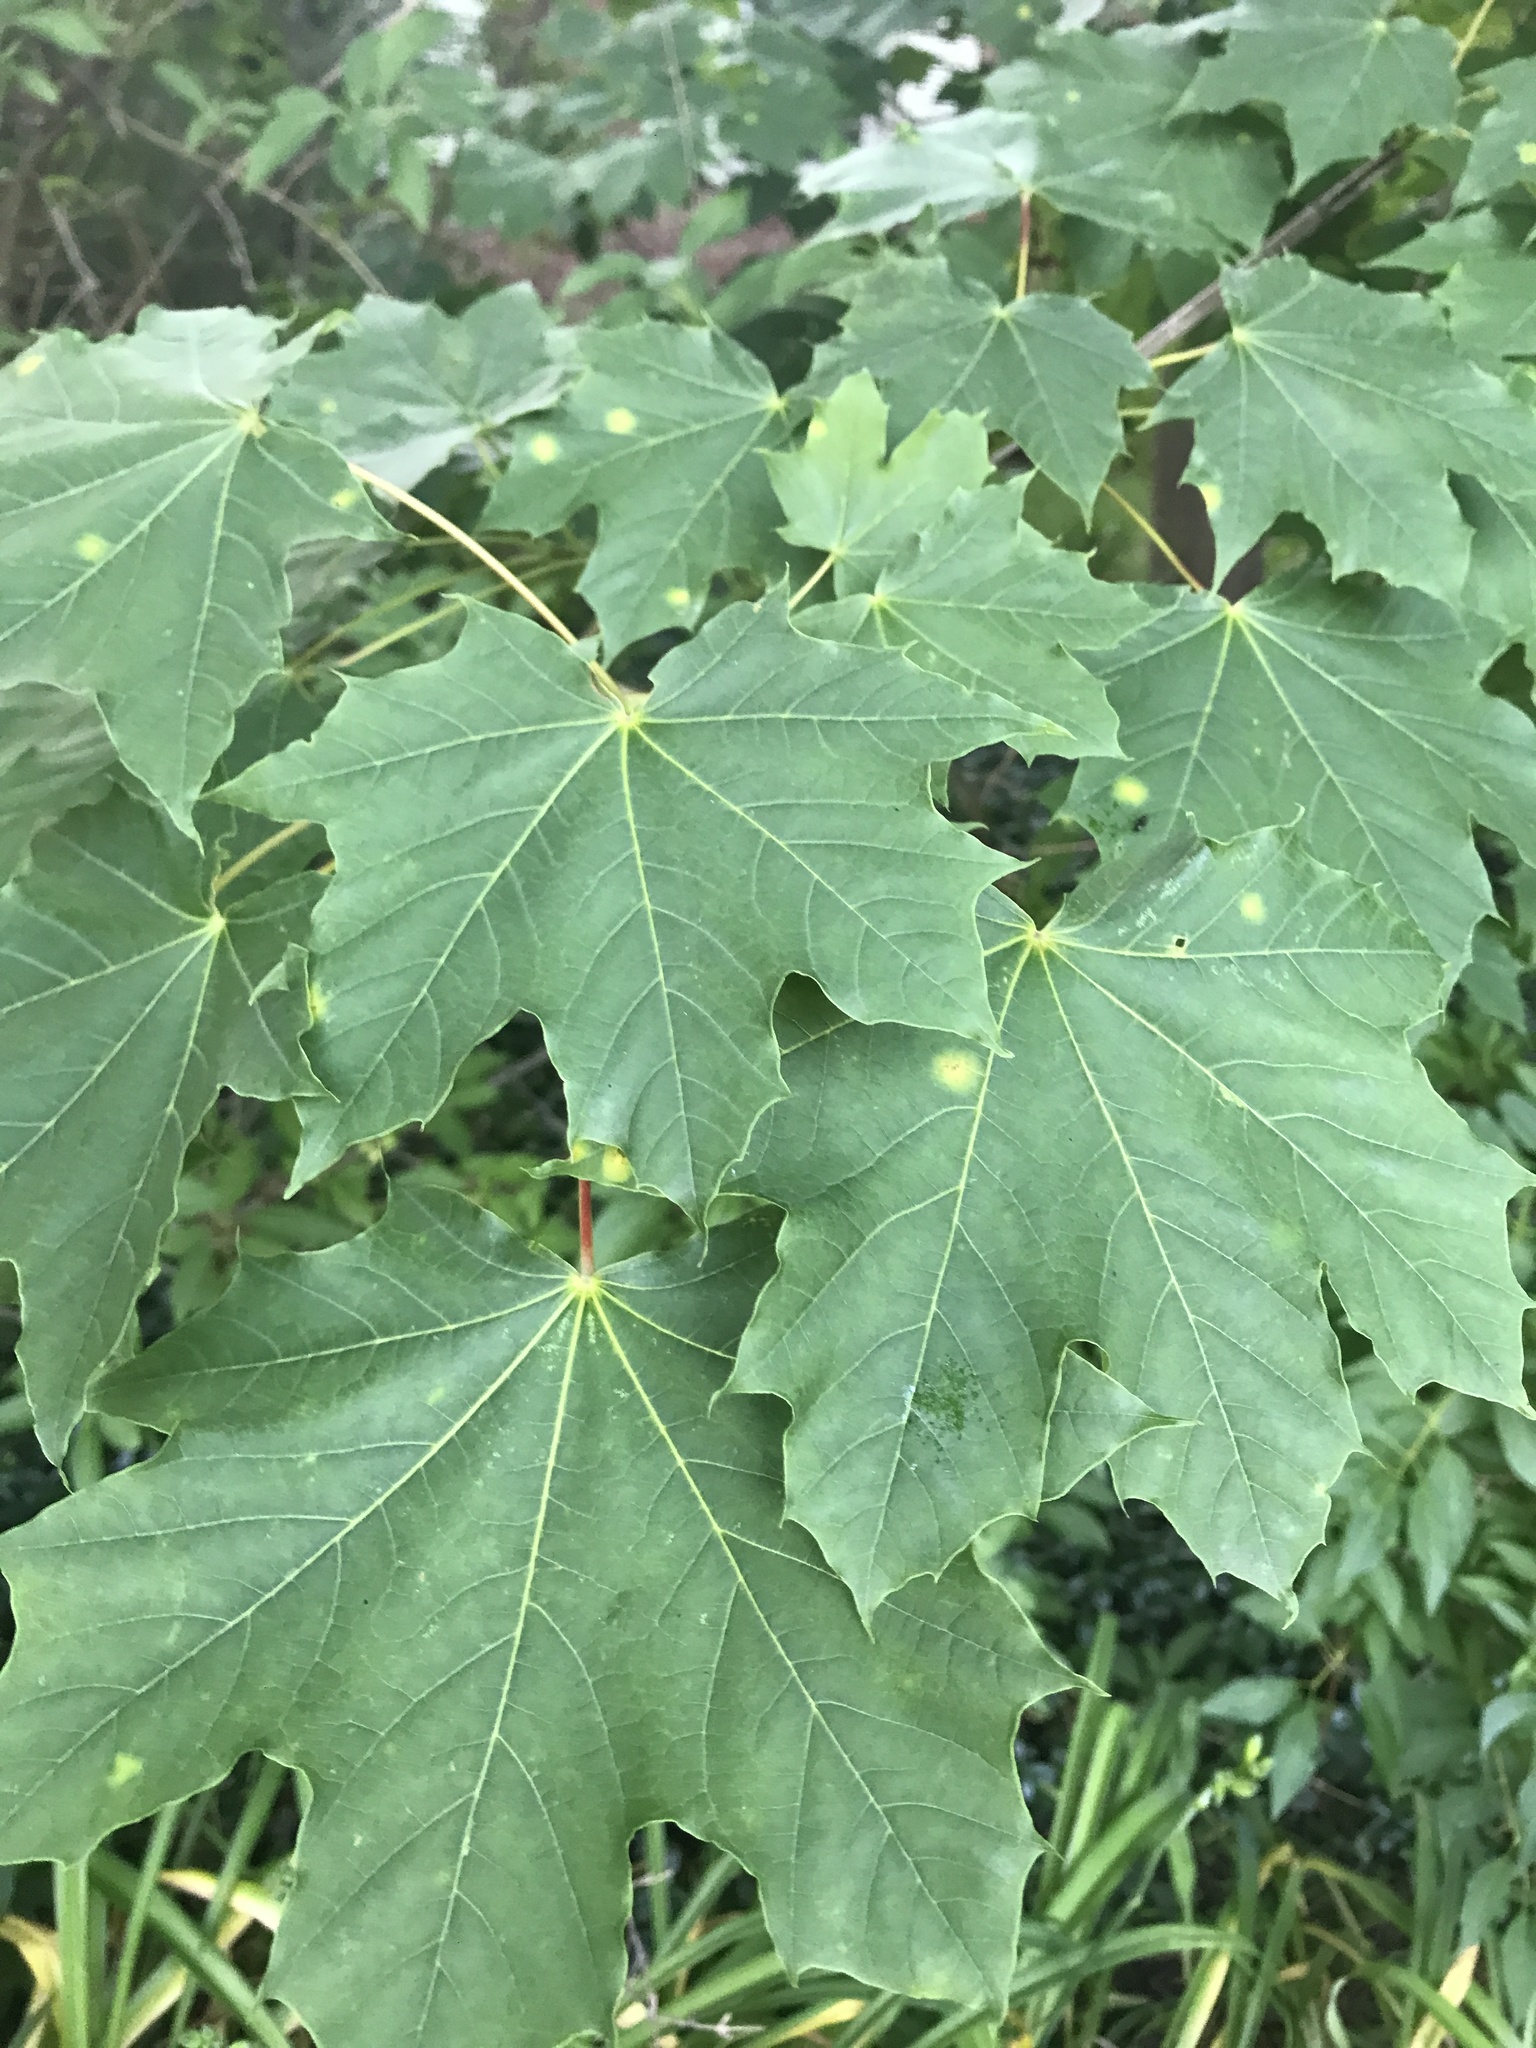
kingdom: Plantae
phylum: Tracheophyta
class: Magnoliopsida
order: Sapindales
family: Sapindaceae
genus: Acer
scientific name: Acer platanoides
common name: Norway maple
